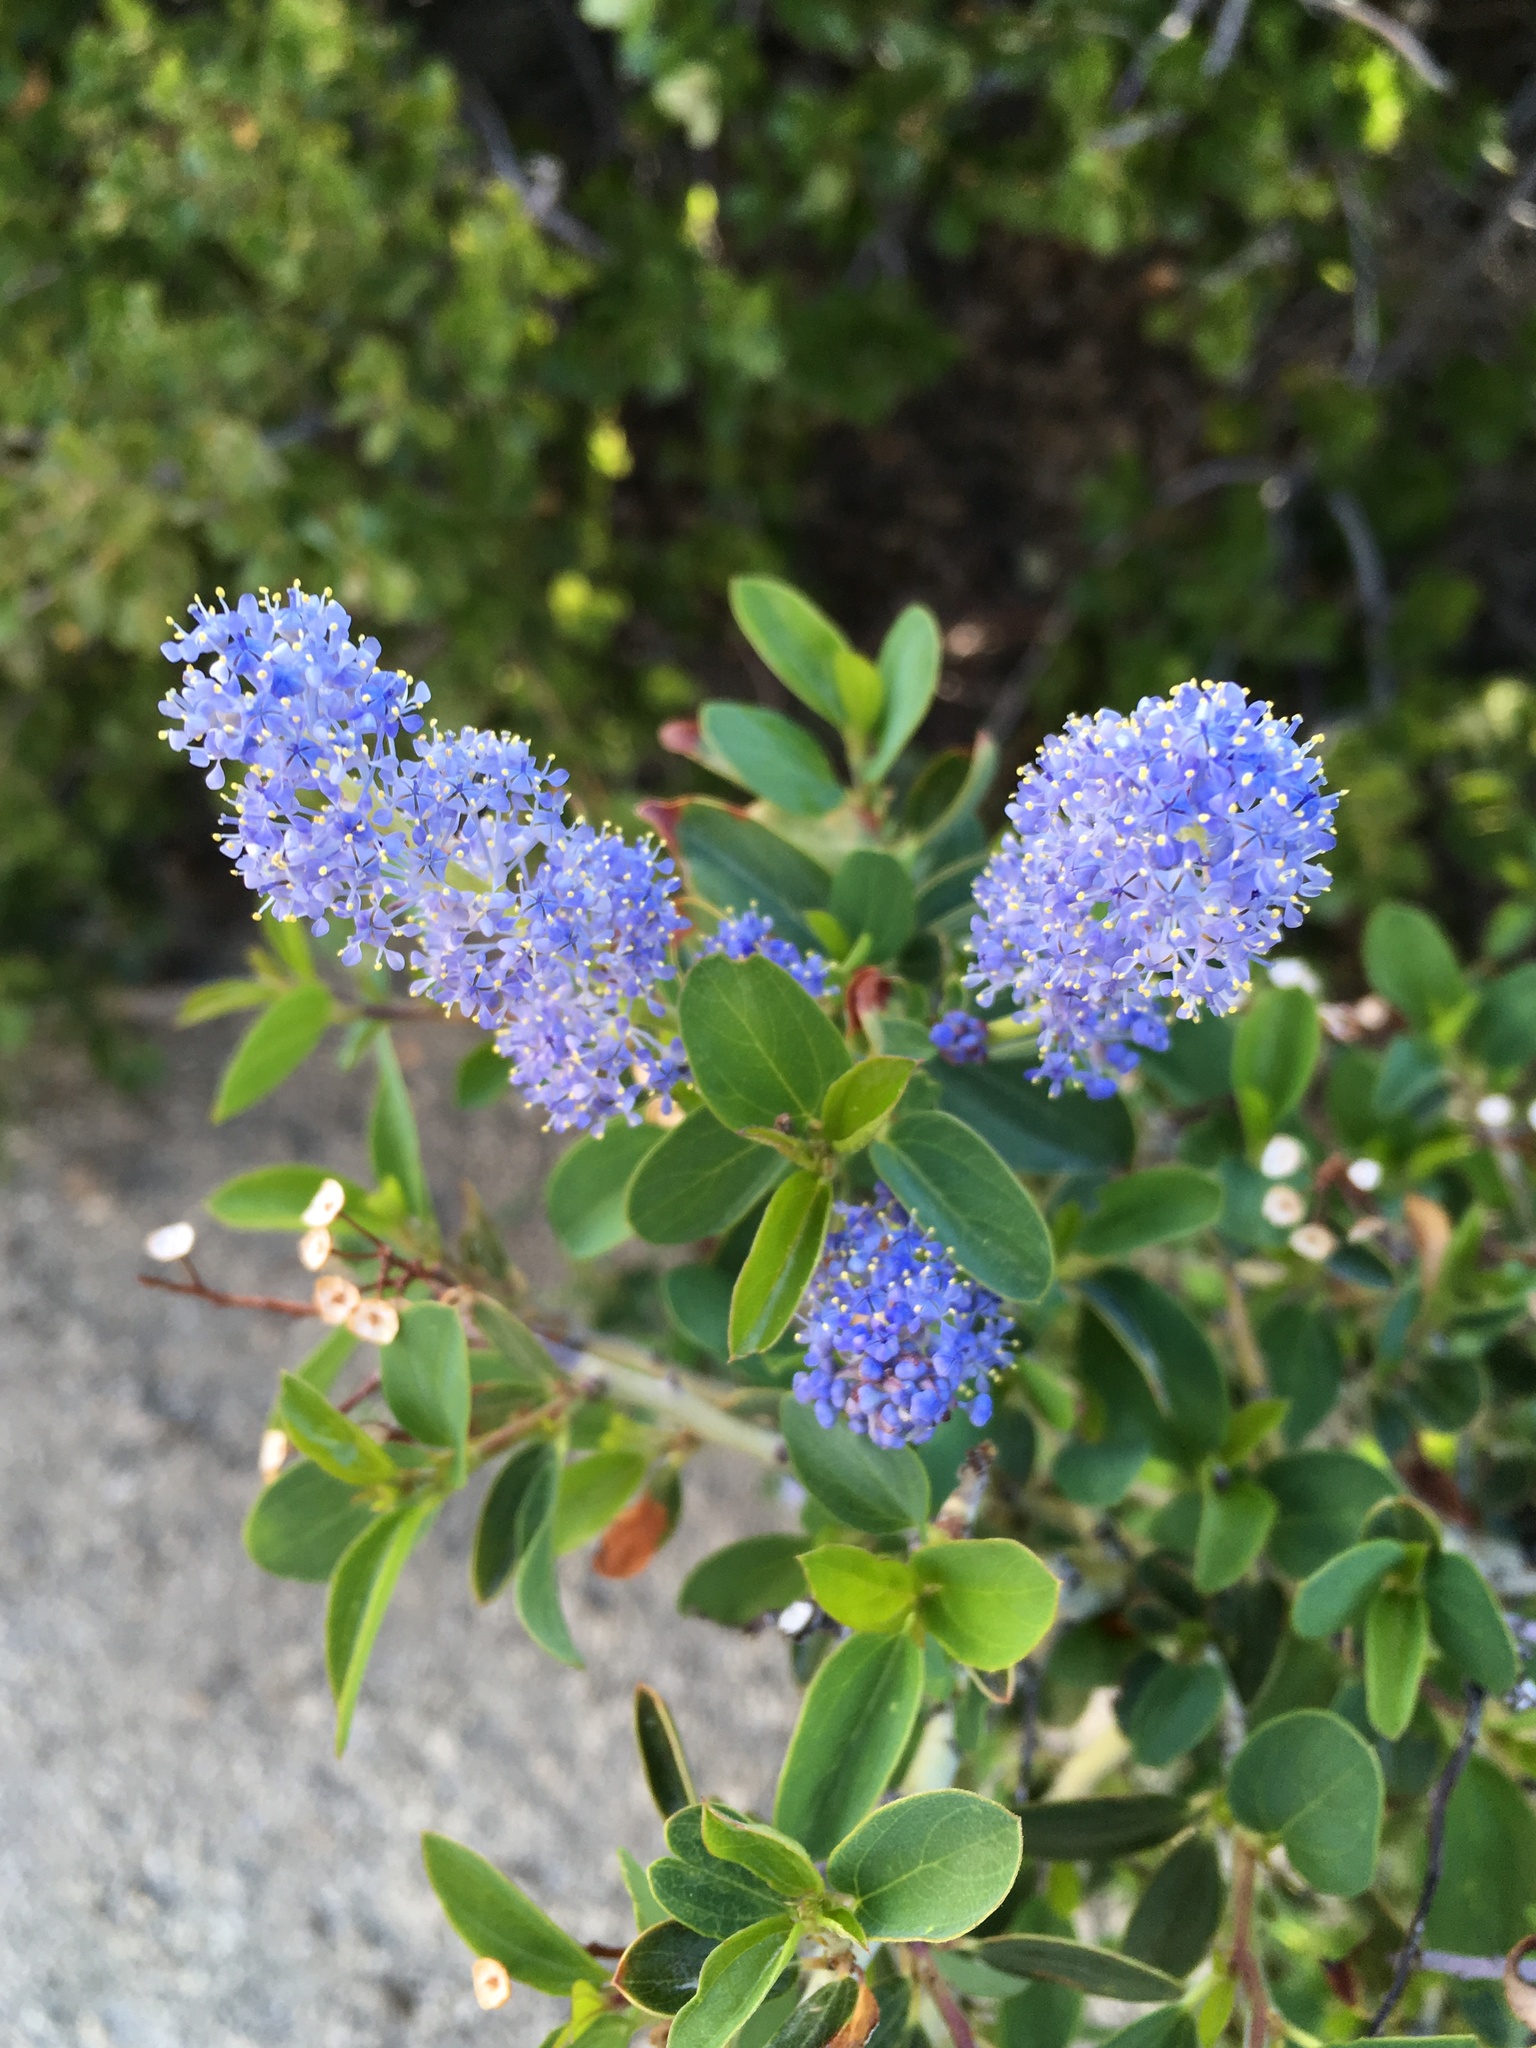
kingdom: Plantae
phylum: Tracheophyta
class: Magnoliopsida
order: Rosales
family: Rhamnaceae
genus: Ceanothus
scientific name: Ceanothus leucodermis
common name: Chaparral whitethorn
